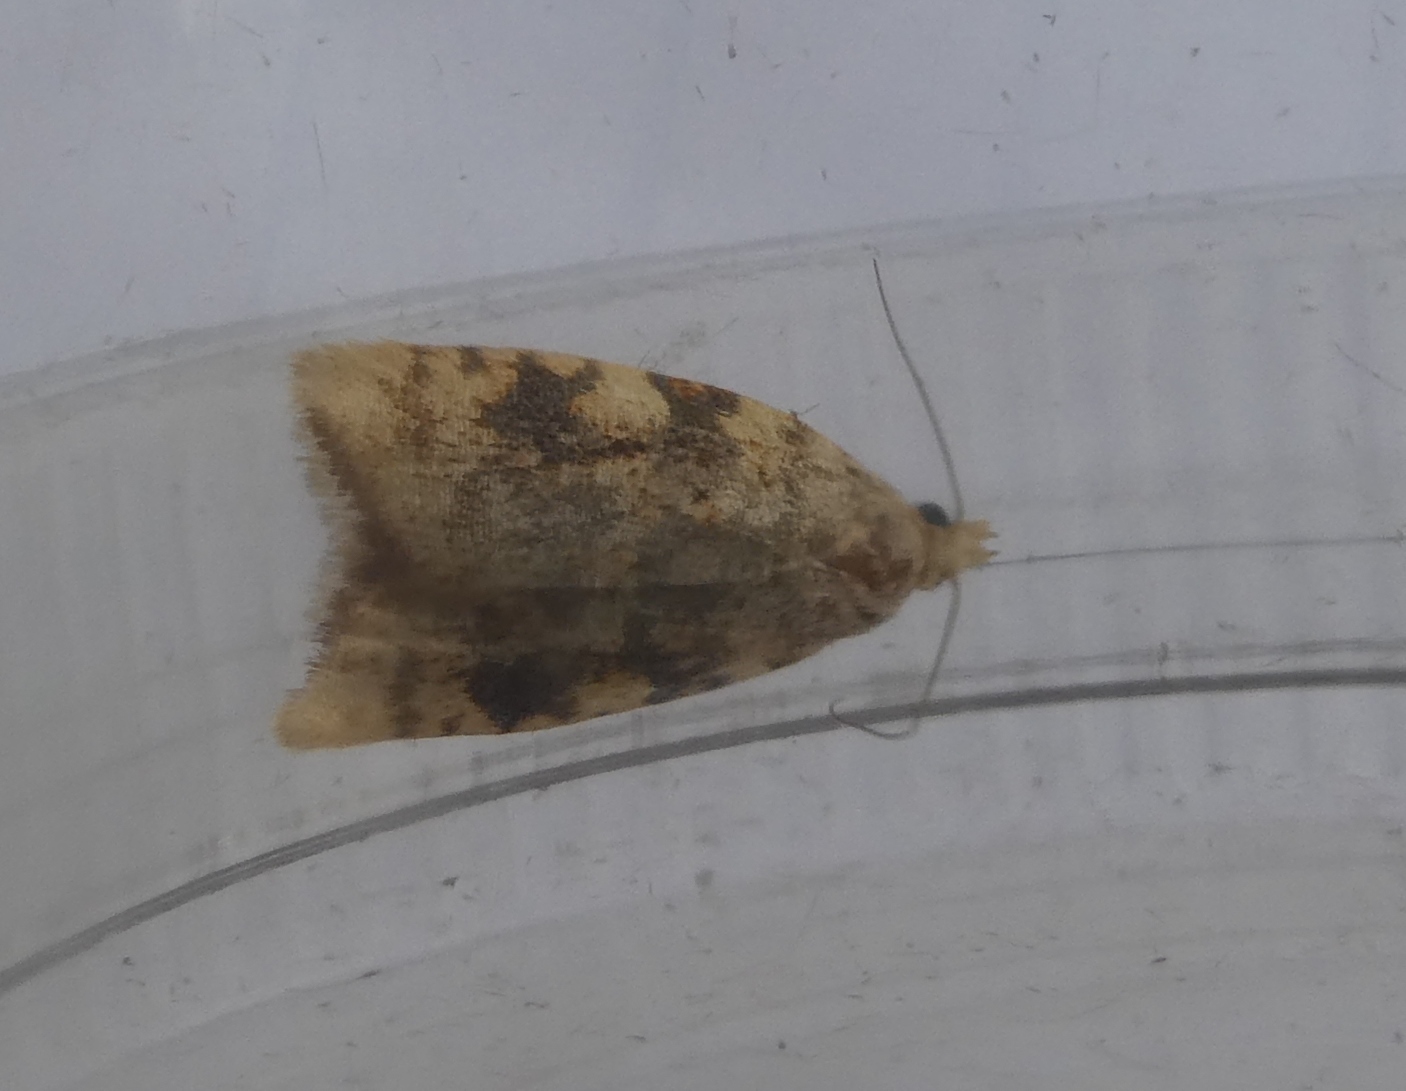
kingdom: Animalia
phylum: Arthropoda
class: Insecta
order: Lepidoptera
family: Tortricidae
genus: Aleimma
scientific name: Aleimma loeflingiana
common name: Yellow oak button
